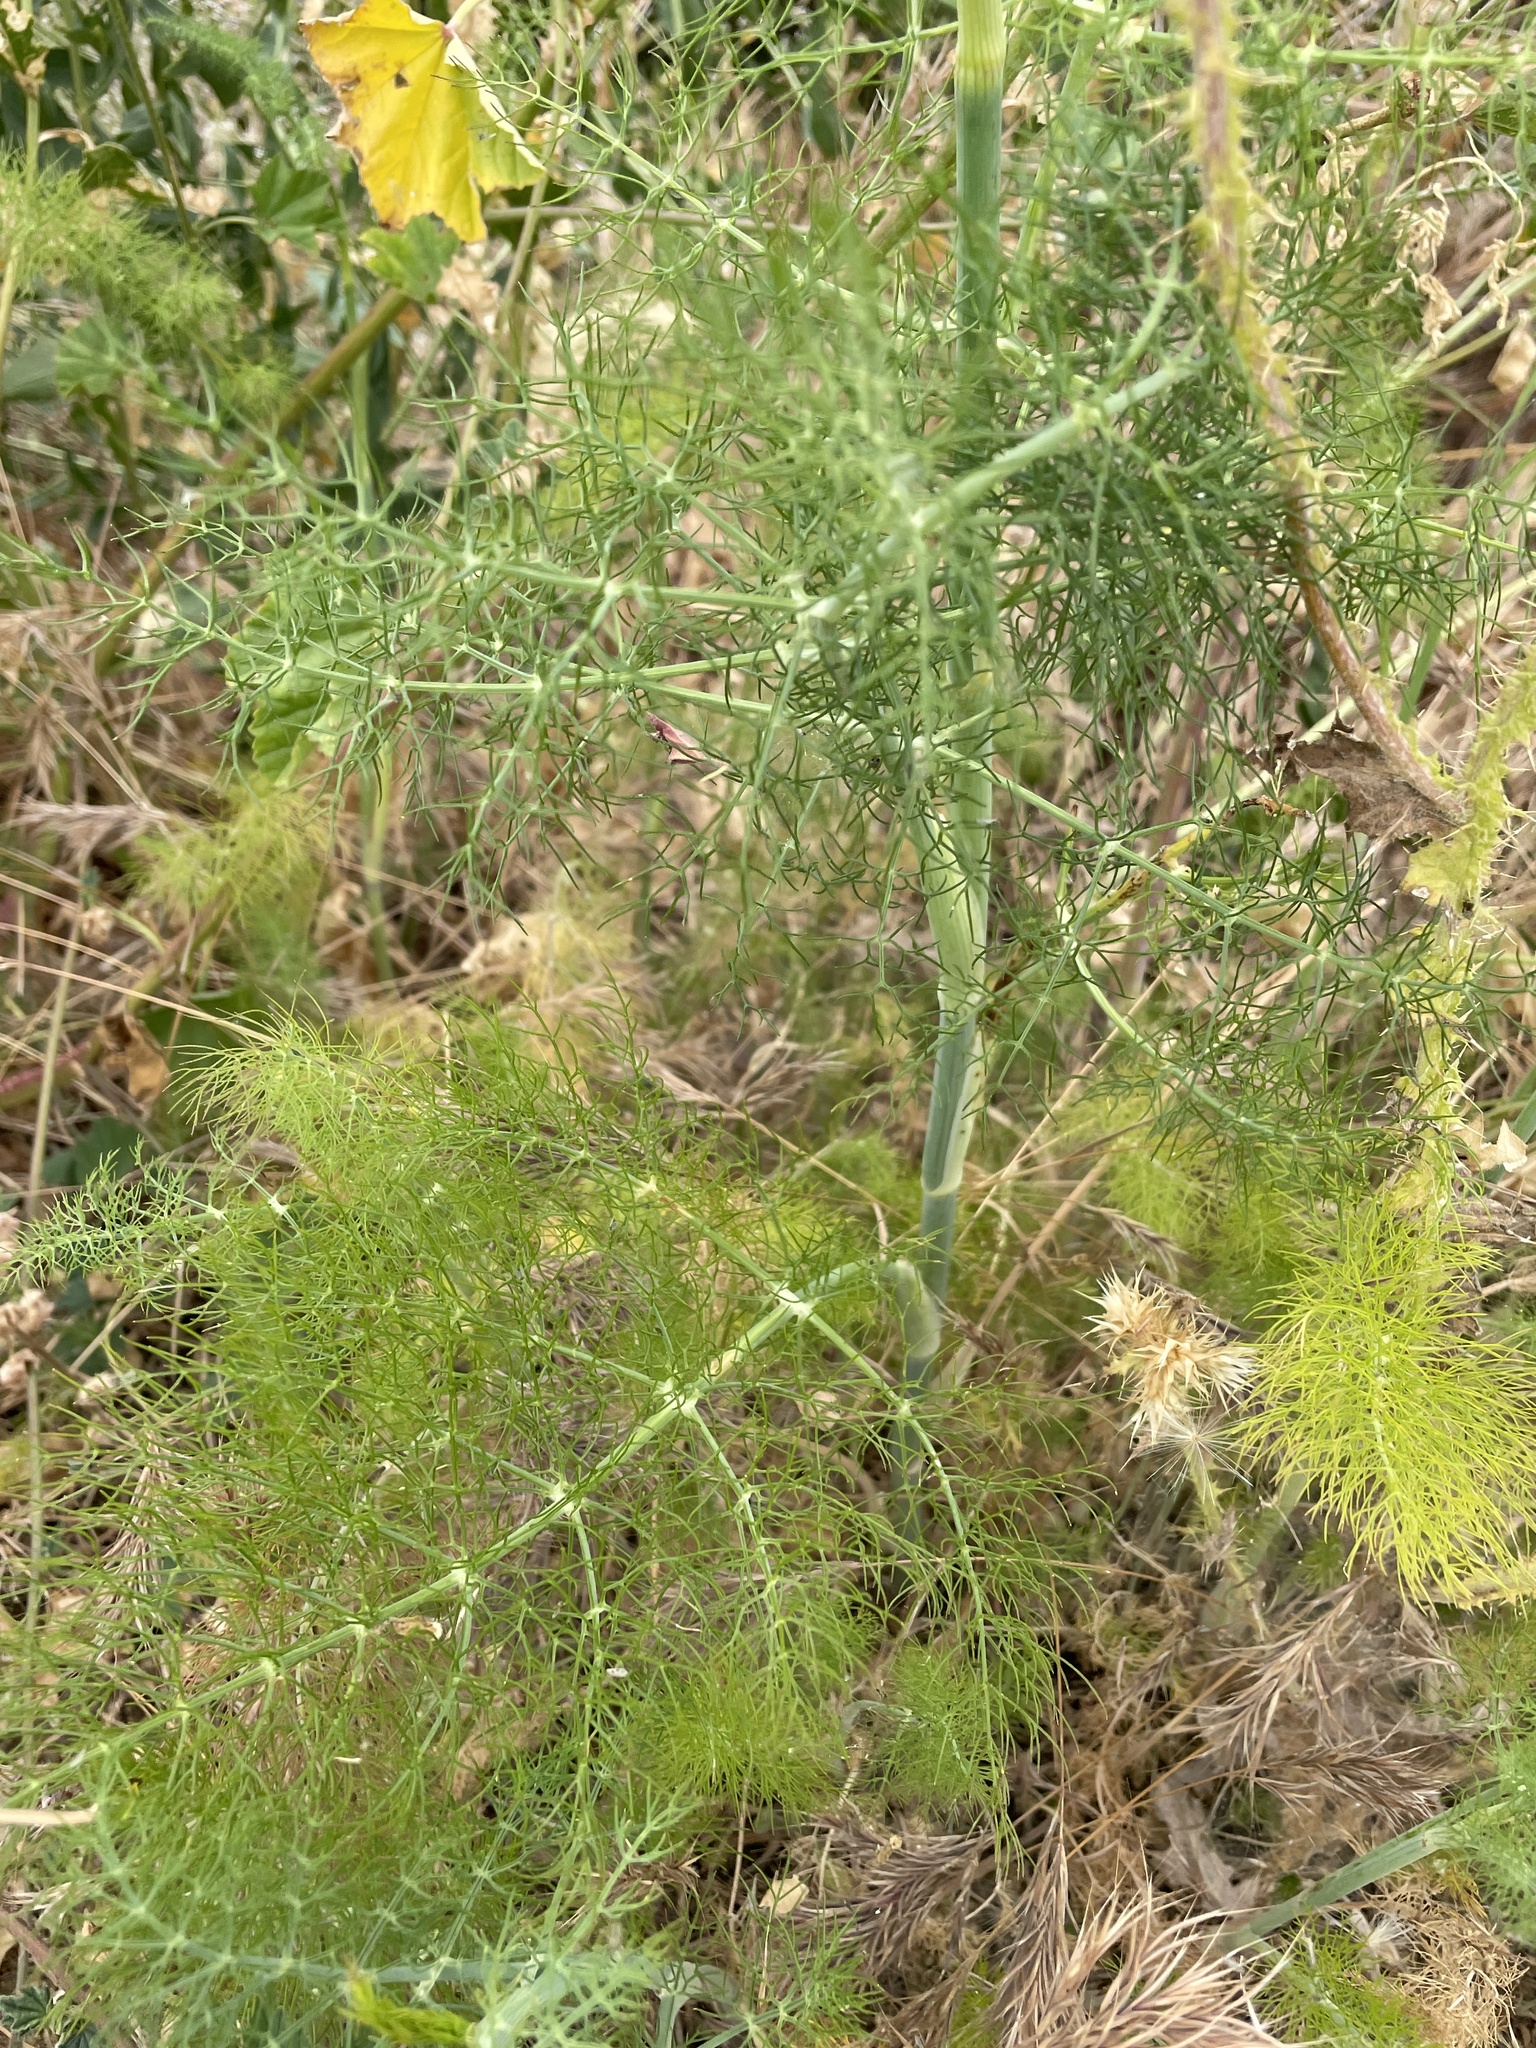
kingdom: Plantae
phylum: Tracheophyta
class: Magnoliopsida
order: Apiales
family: Apiaceae
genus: Foeniculum
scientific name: Foeniculum vulgare
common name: Fennel
